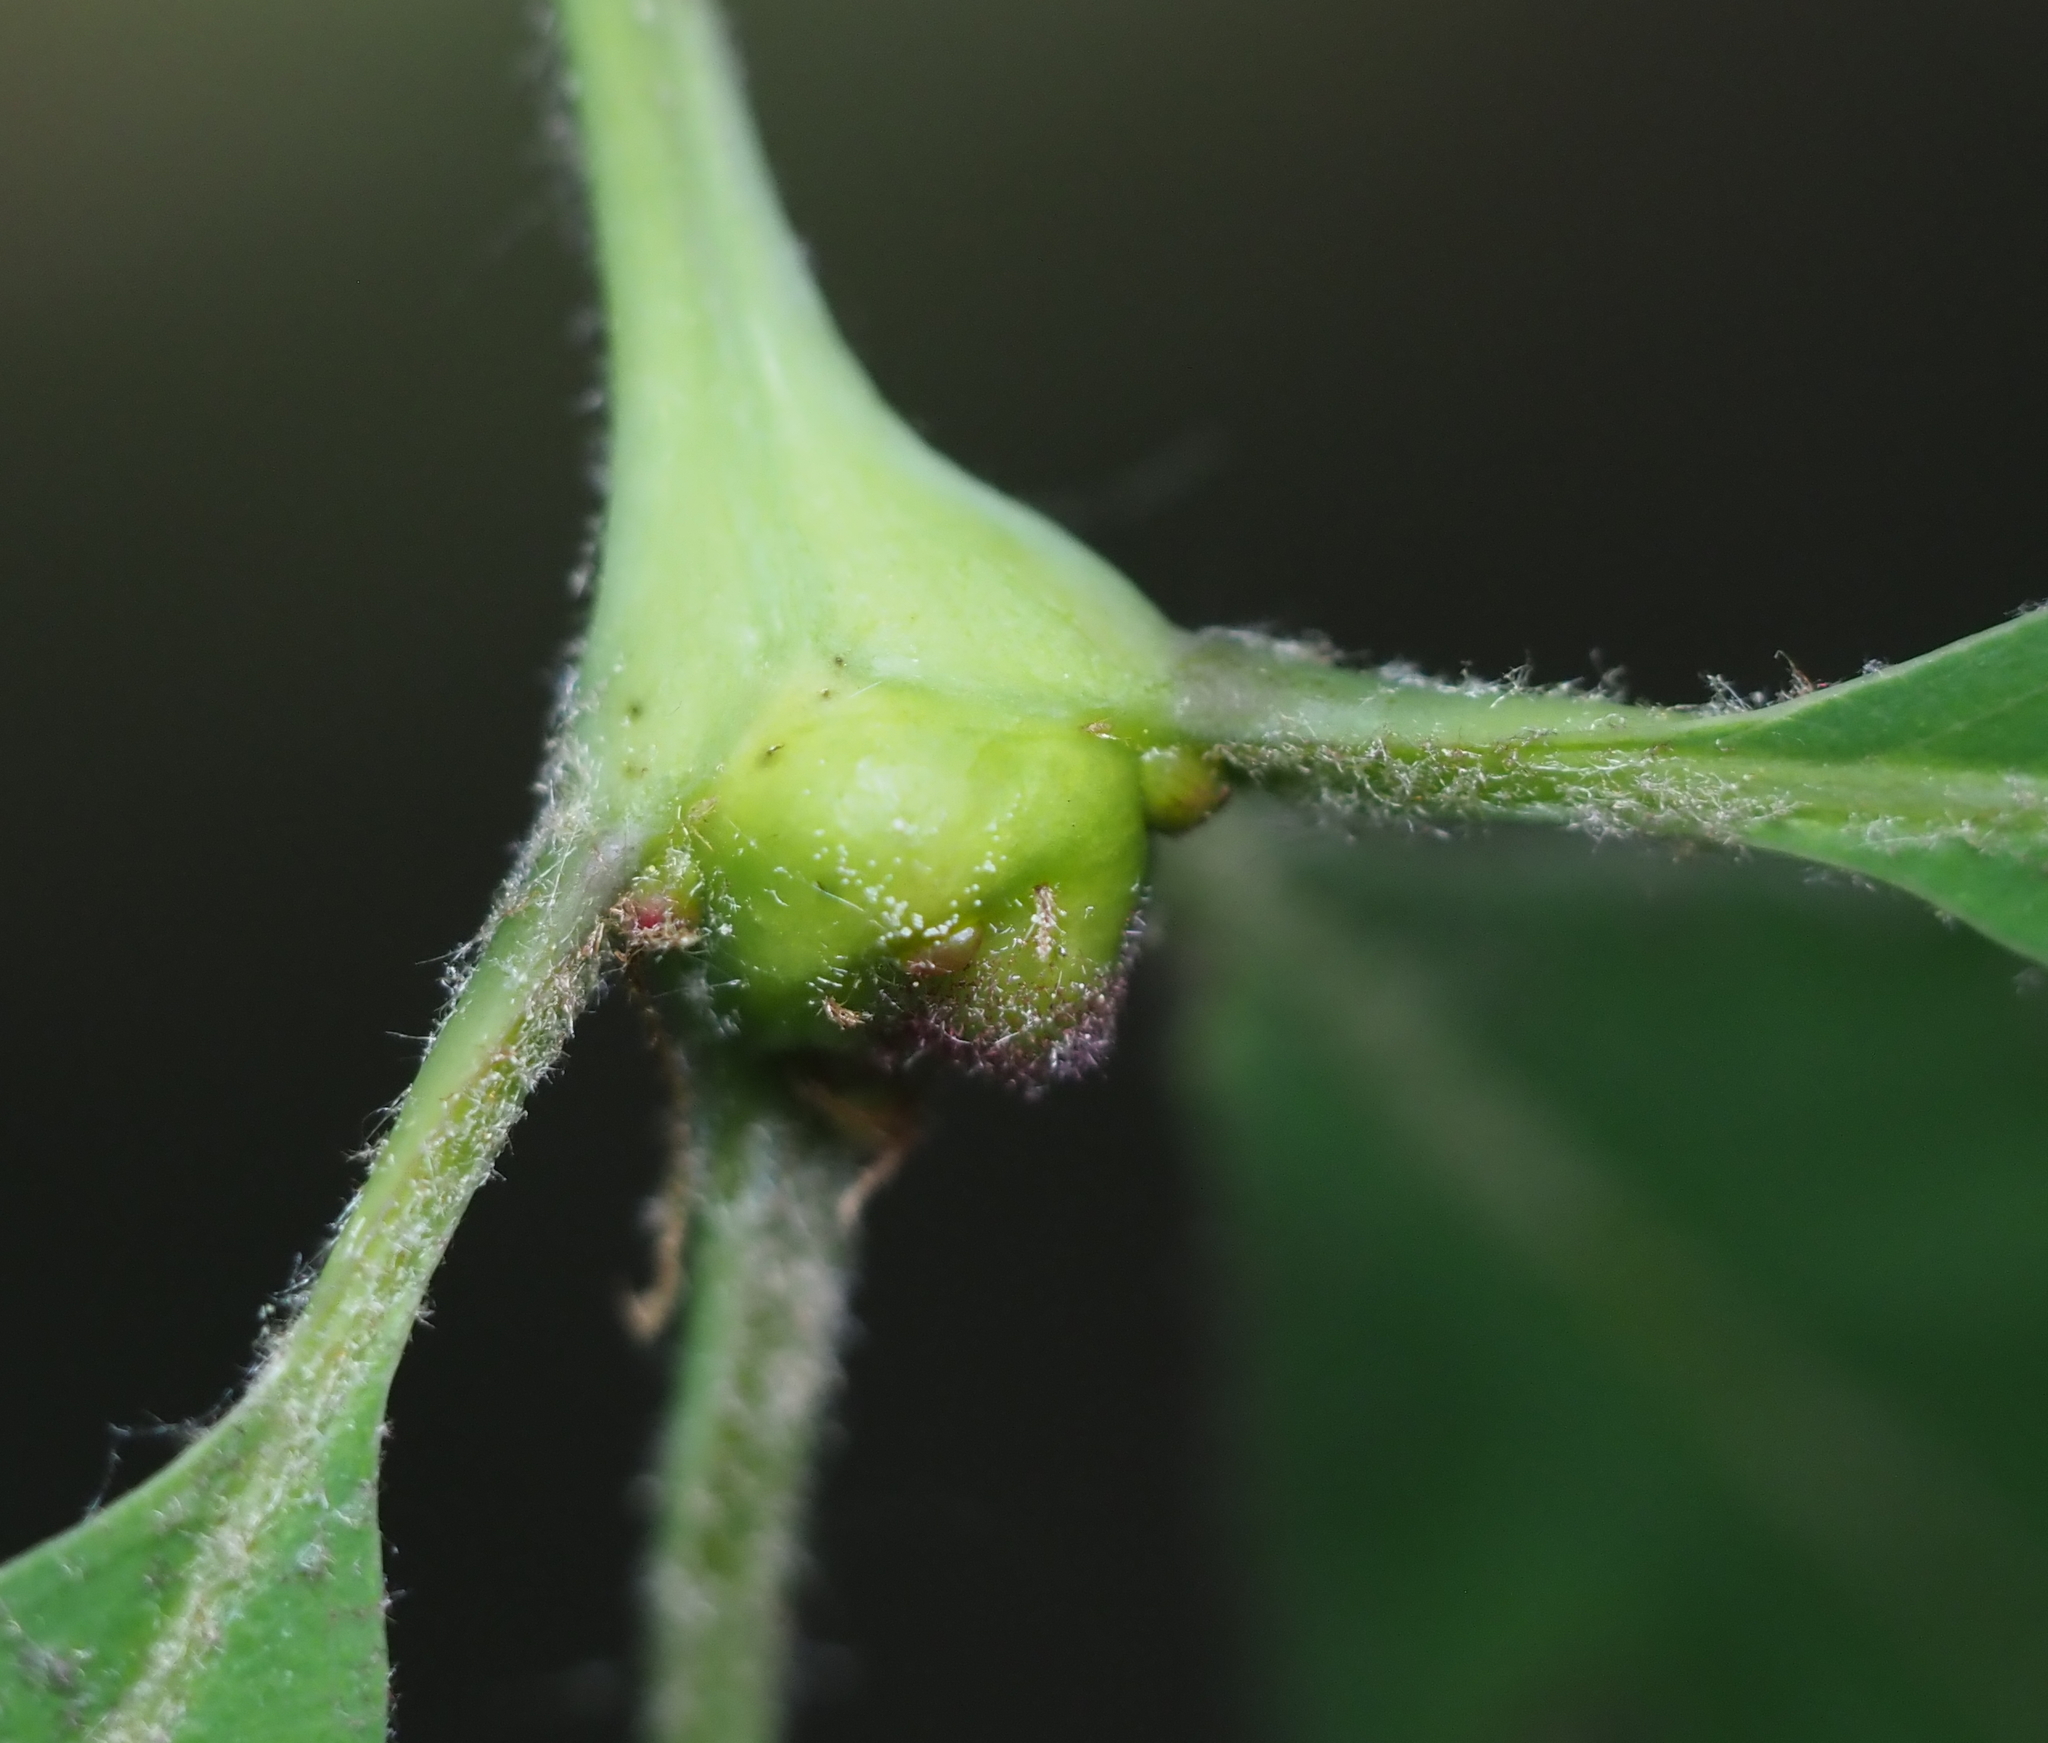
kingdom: Animalia
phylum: Arthropoda
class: Insecta
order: Hymenoptera
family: Cynipidae
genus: Callirhytis
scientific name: Callirhytis clavula
